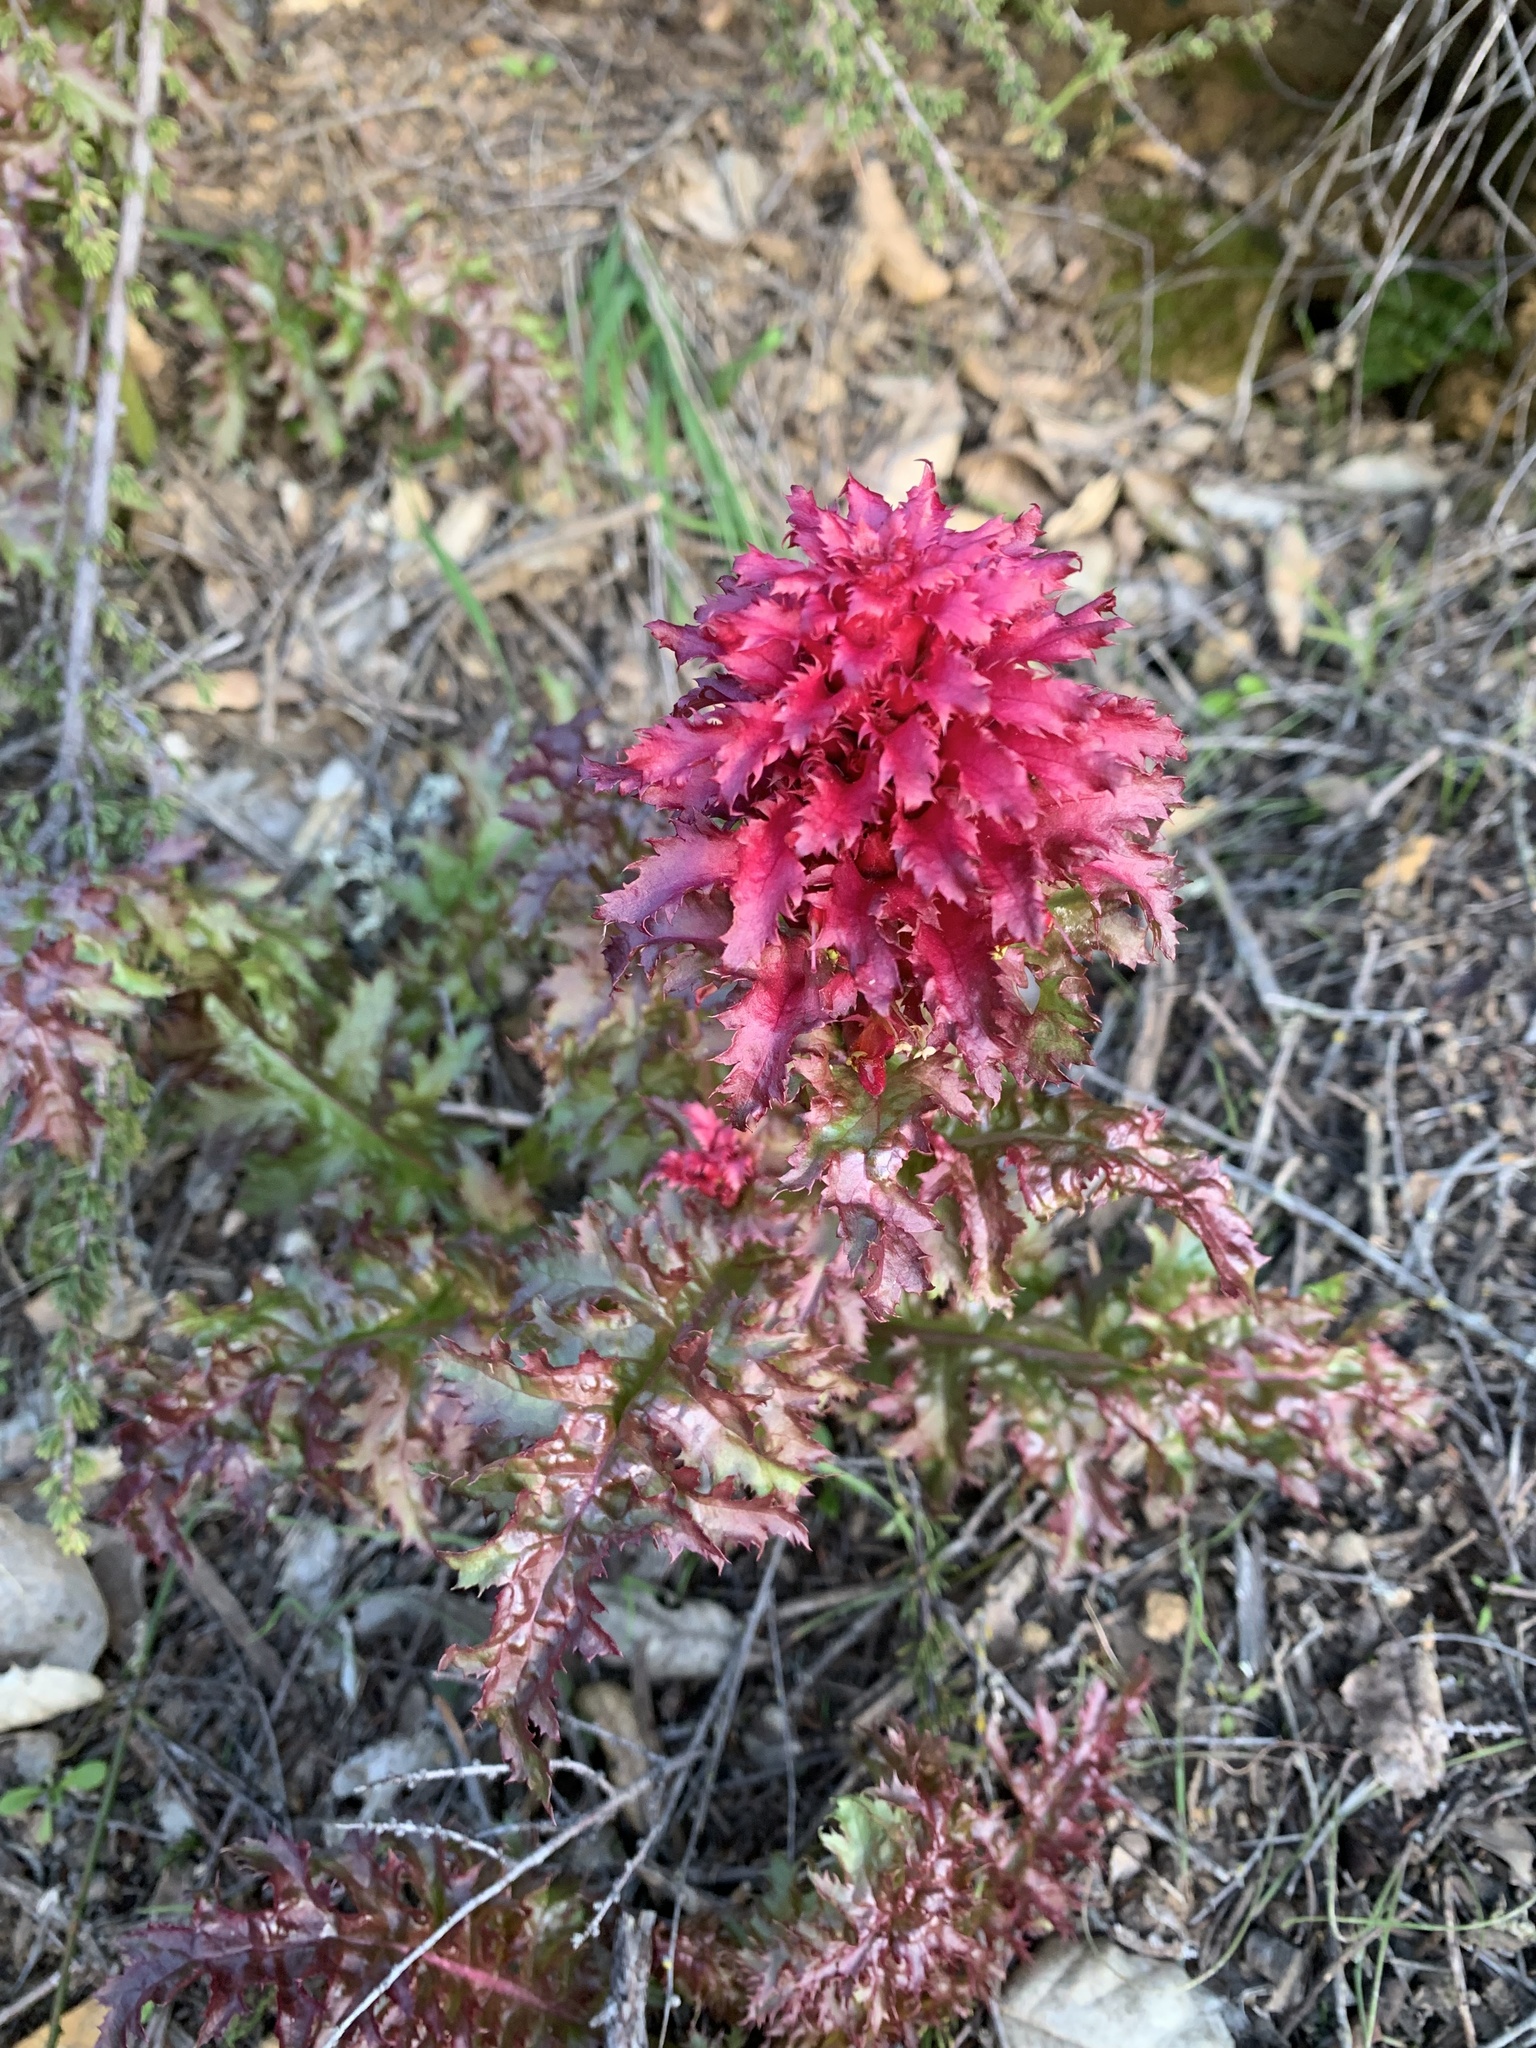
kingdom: Plantae
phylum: Tracheophyta
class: Magnoliopsida
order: Lamiales
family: Orobanchaceae
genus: Pedicularis
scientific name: Pedicularis densiflora
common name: Indian warrior
